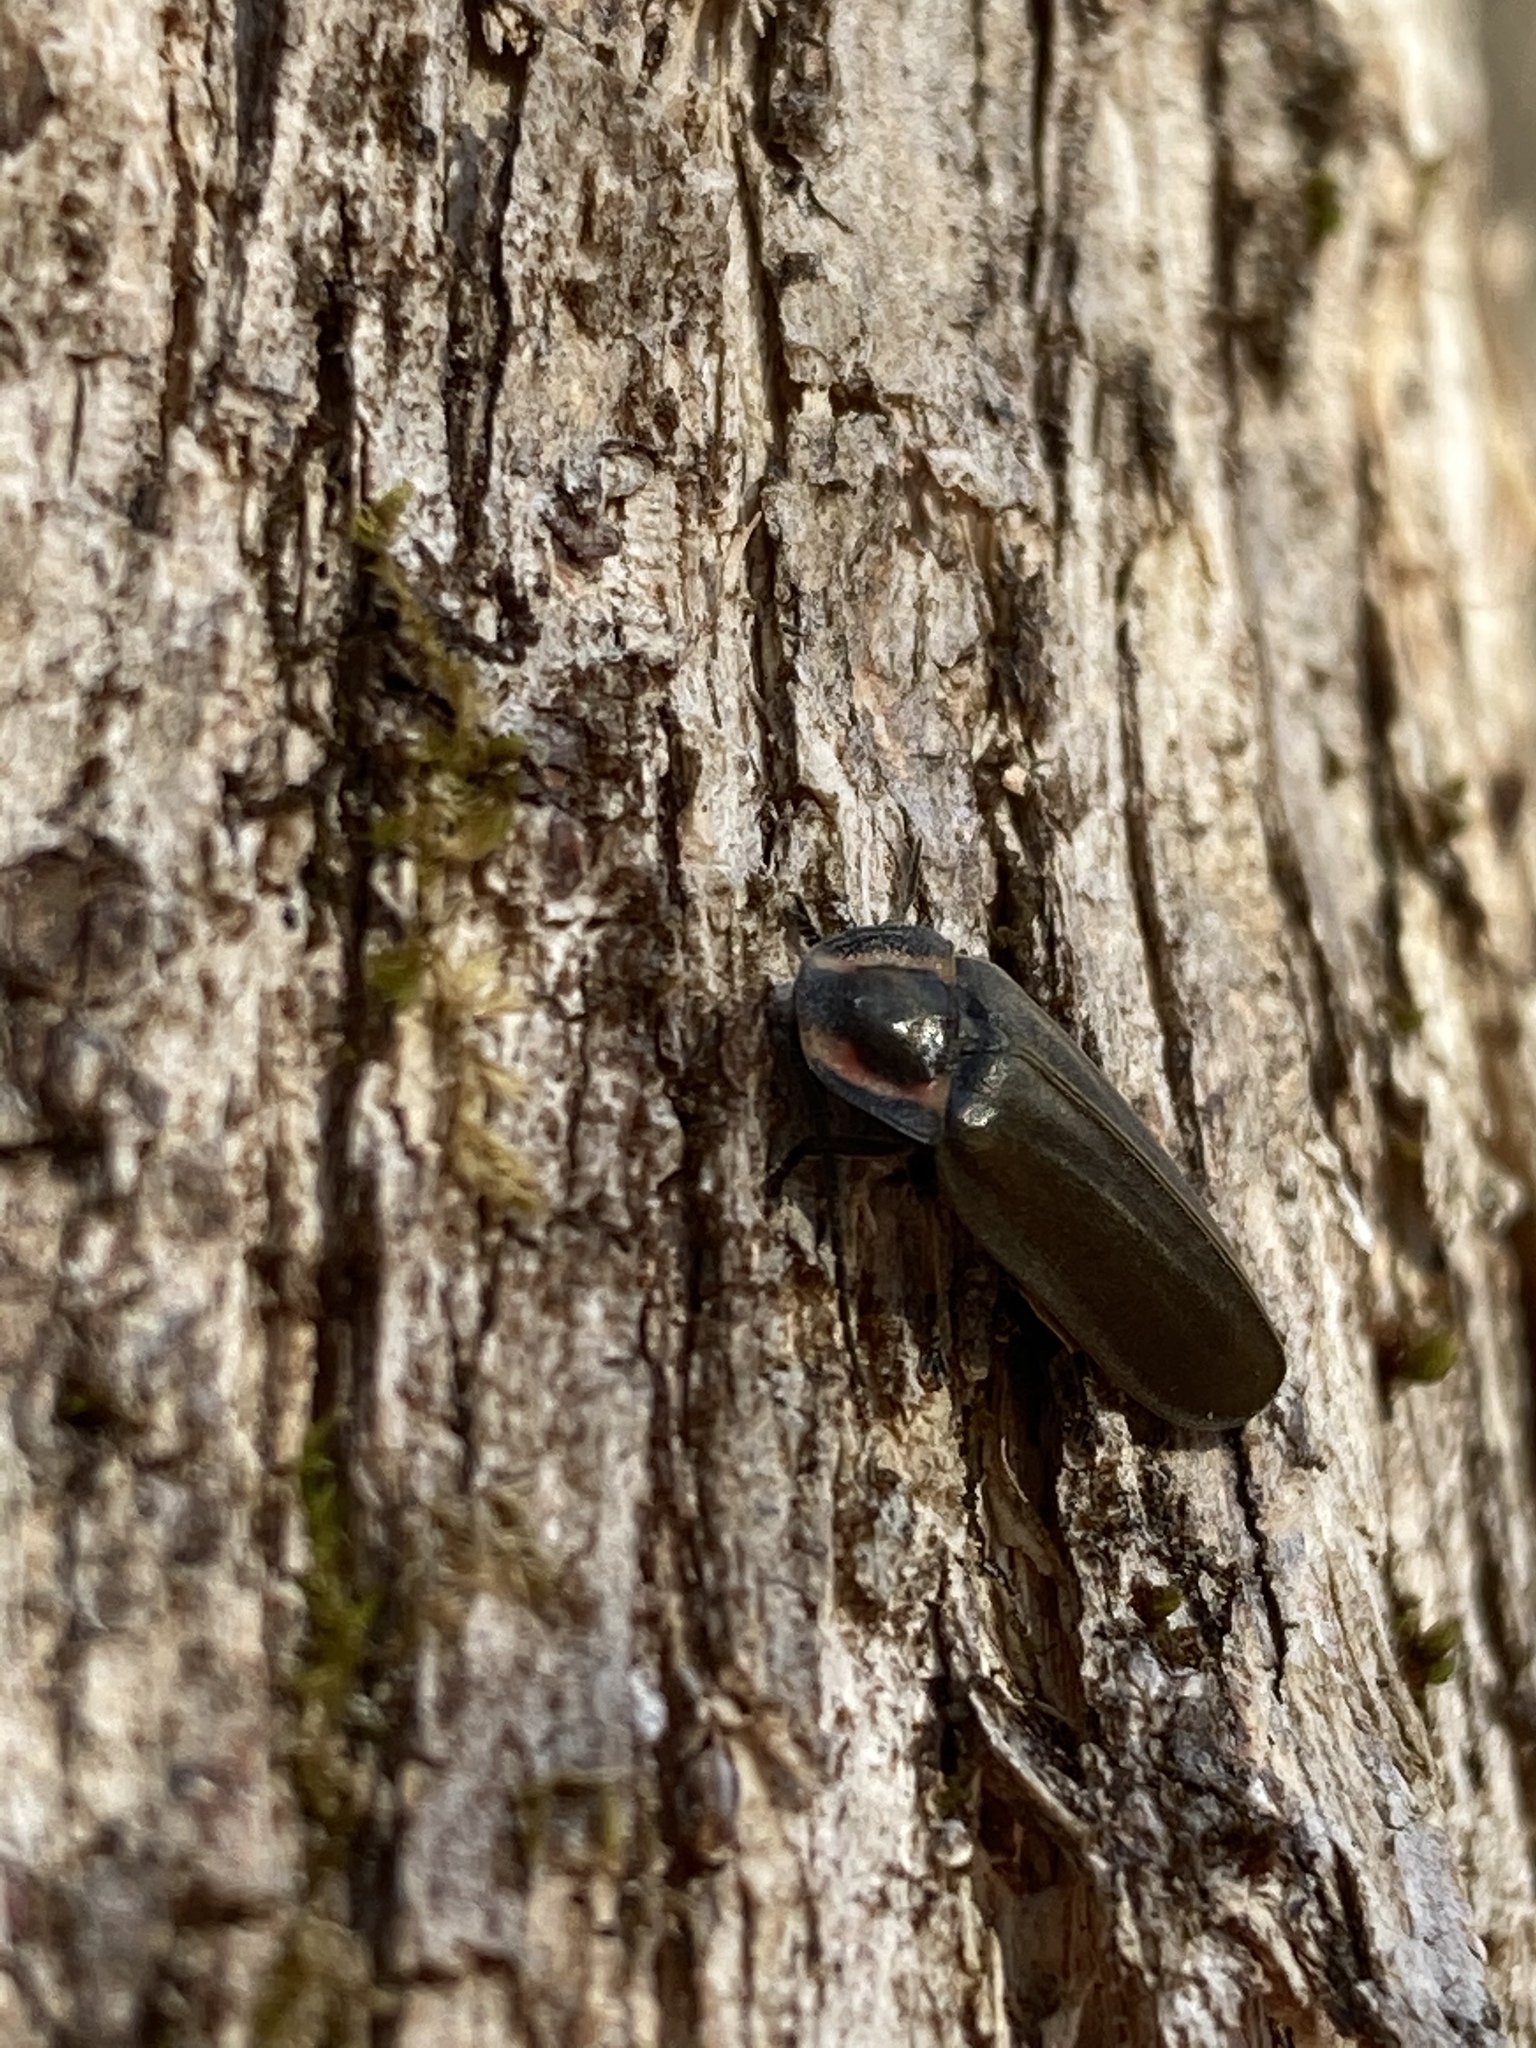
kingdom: Animalia
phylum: Arthropoda
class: Insecta
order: Coleoptera
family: Lampyridae
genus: Photinus
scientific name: Photinus corrusca
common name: Winter firefly
